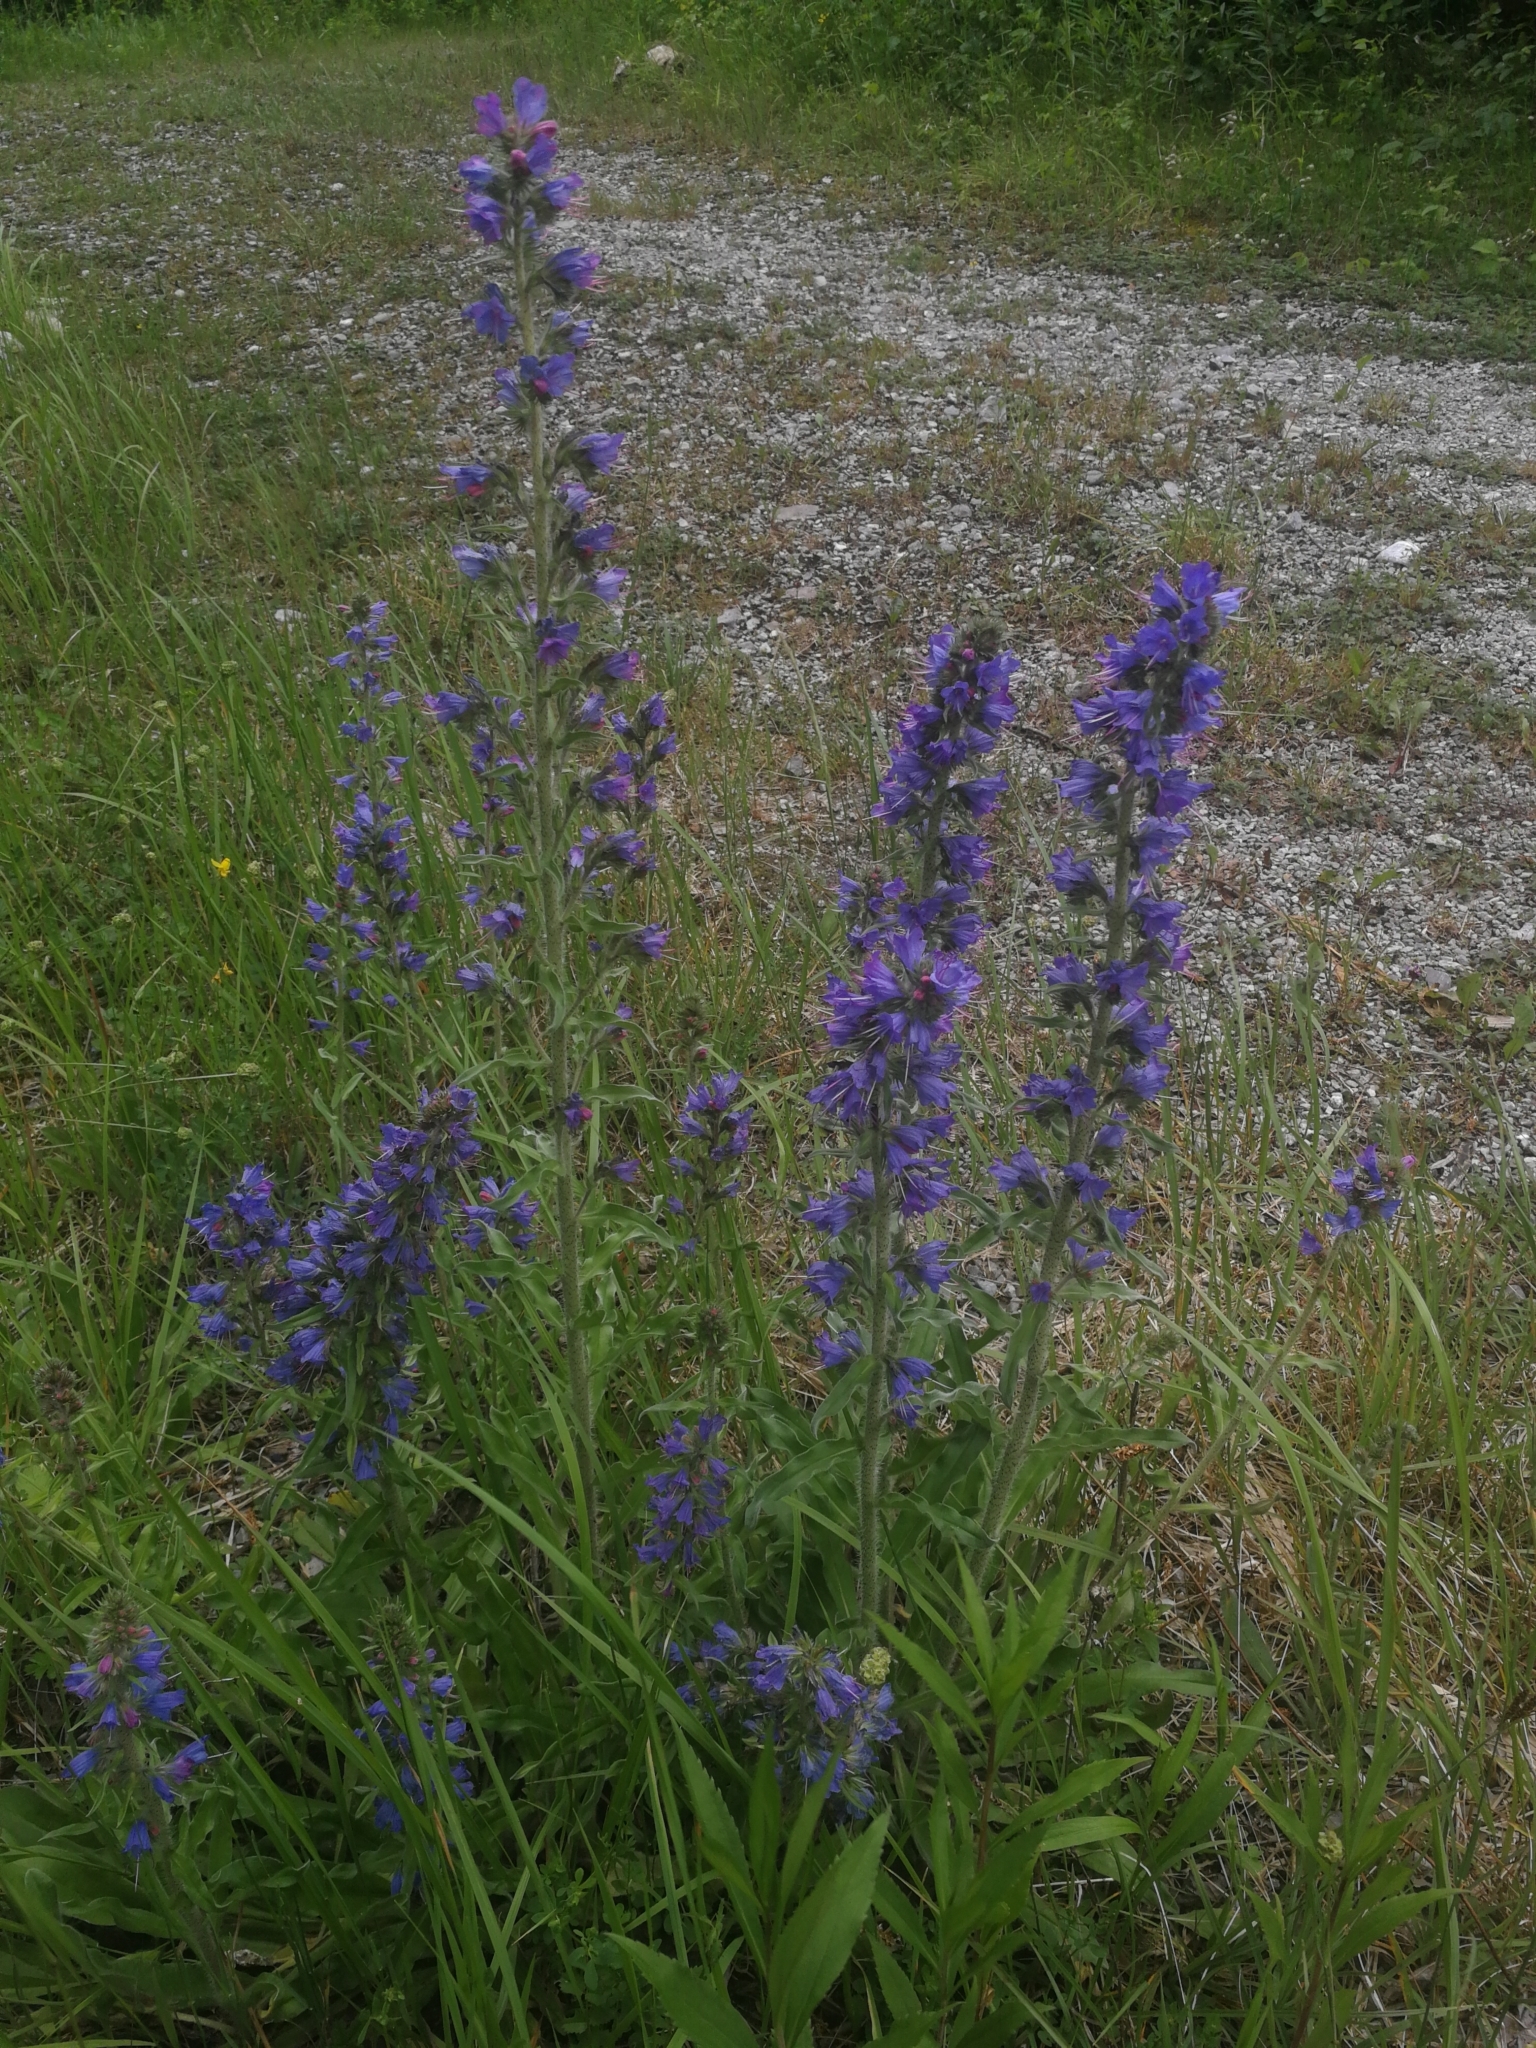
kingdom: Plantae
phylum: Tracheophyta
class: Magnoliopsida
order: Boraginales
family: Boraginaceae
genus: Echium
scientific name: Echium vulgare
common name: Common viper's bugloss
